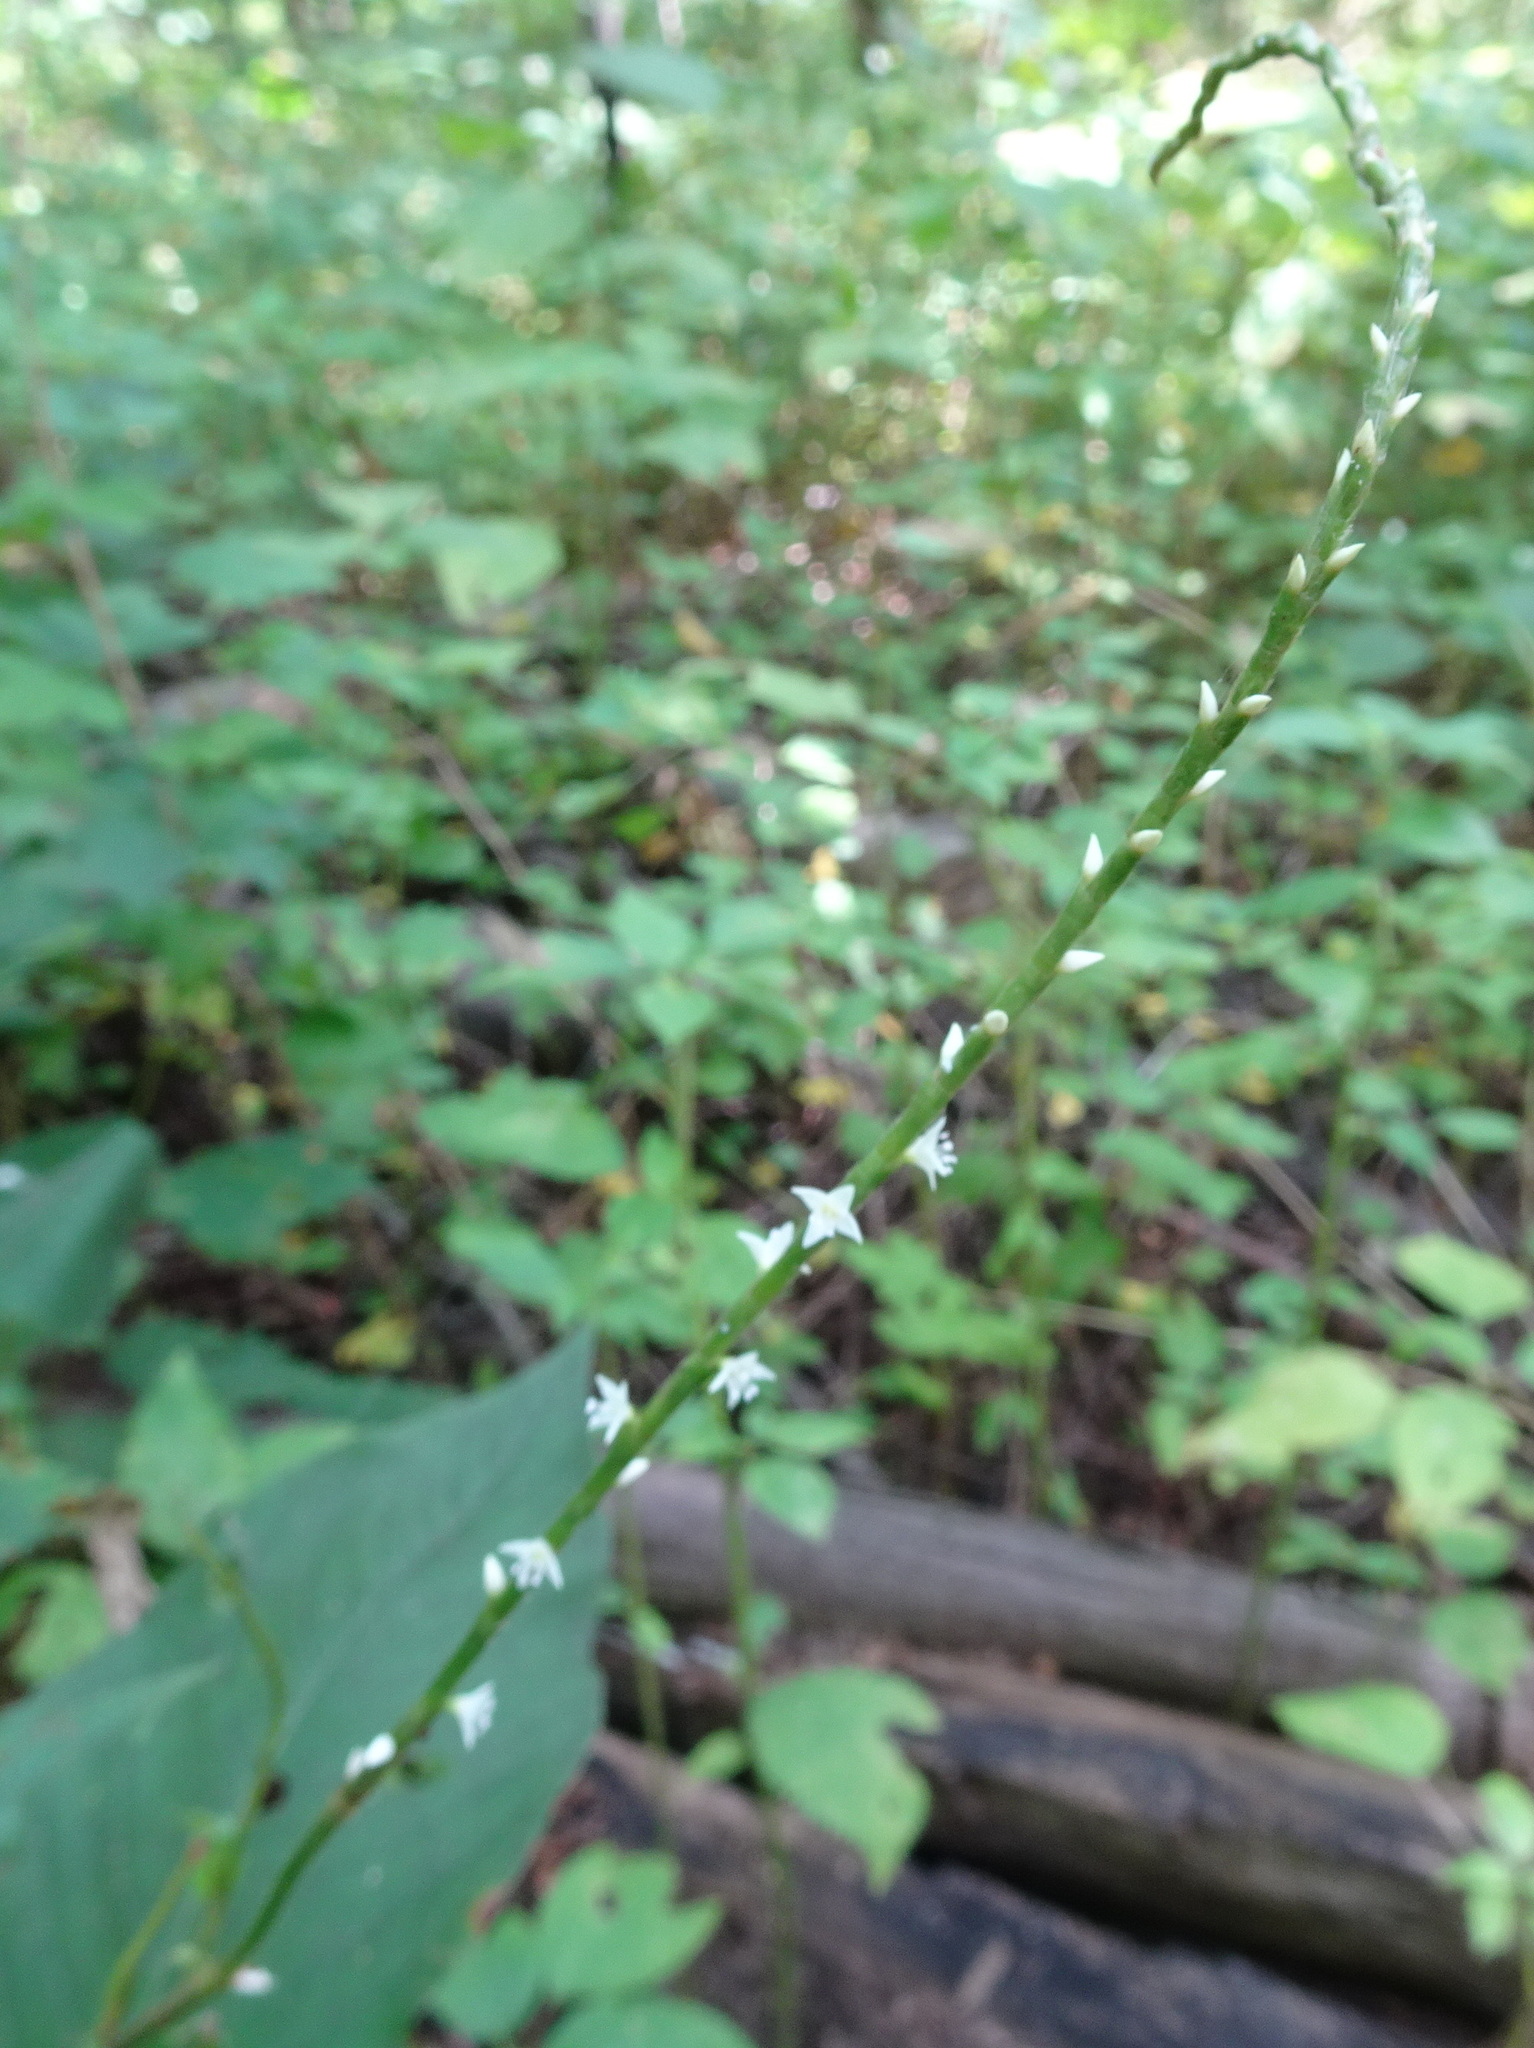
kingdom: Plantae
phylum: Tracheophyta
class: Magnoliopsida
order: Caryophyllales
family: Polygonaceae
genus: Persicaria
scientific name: Persicaria virginiana
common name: Jumpseed
